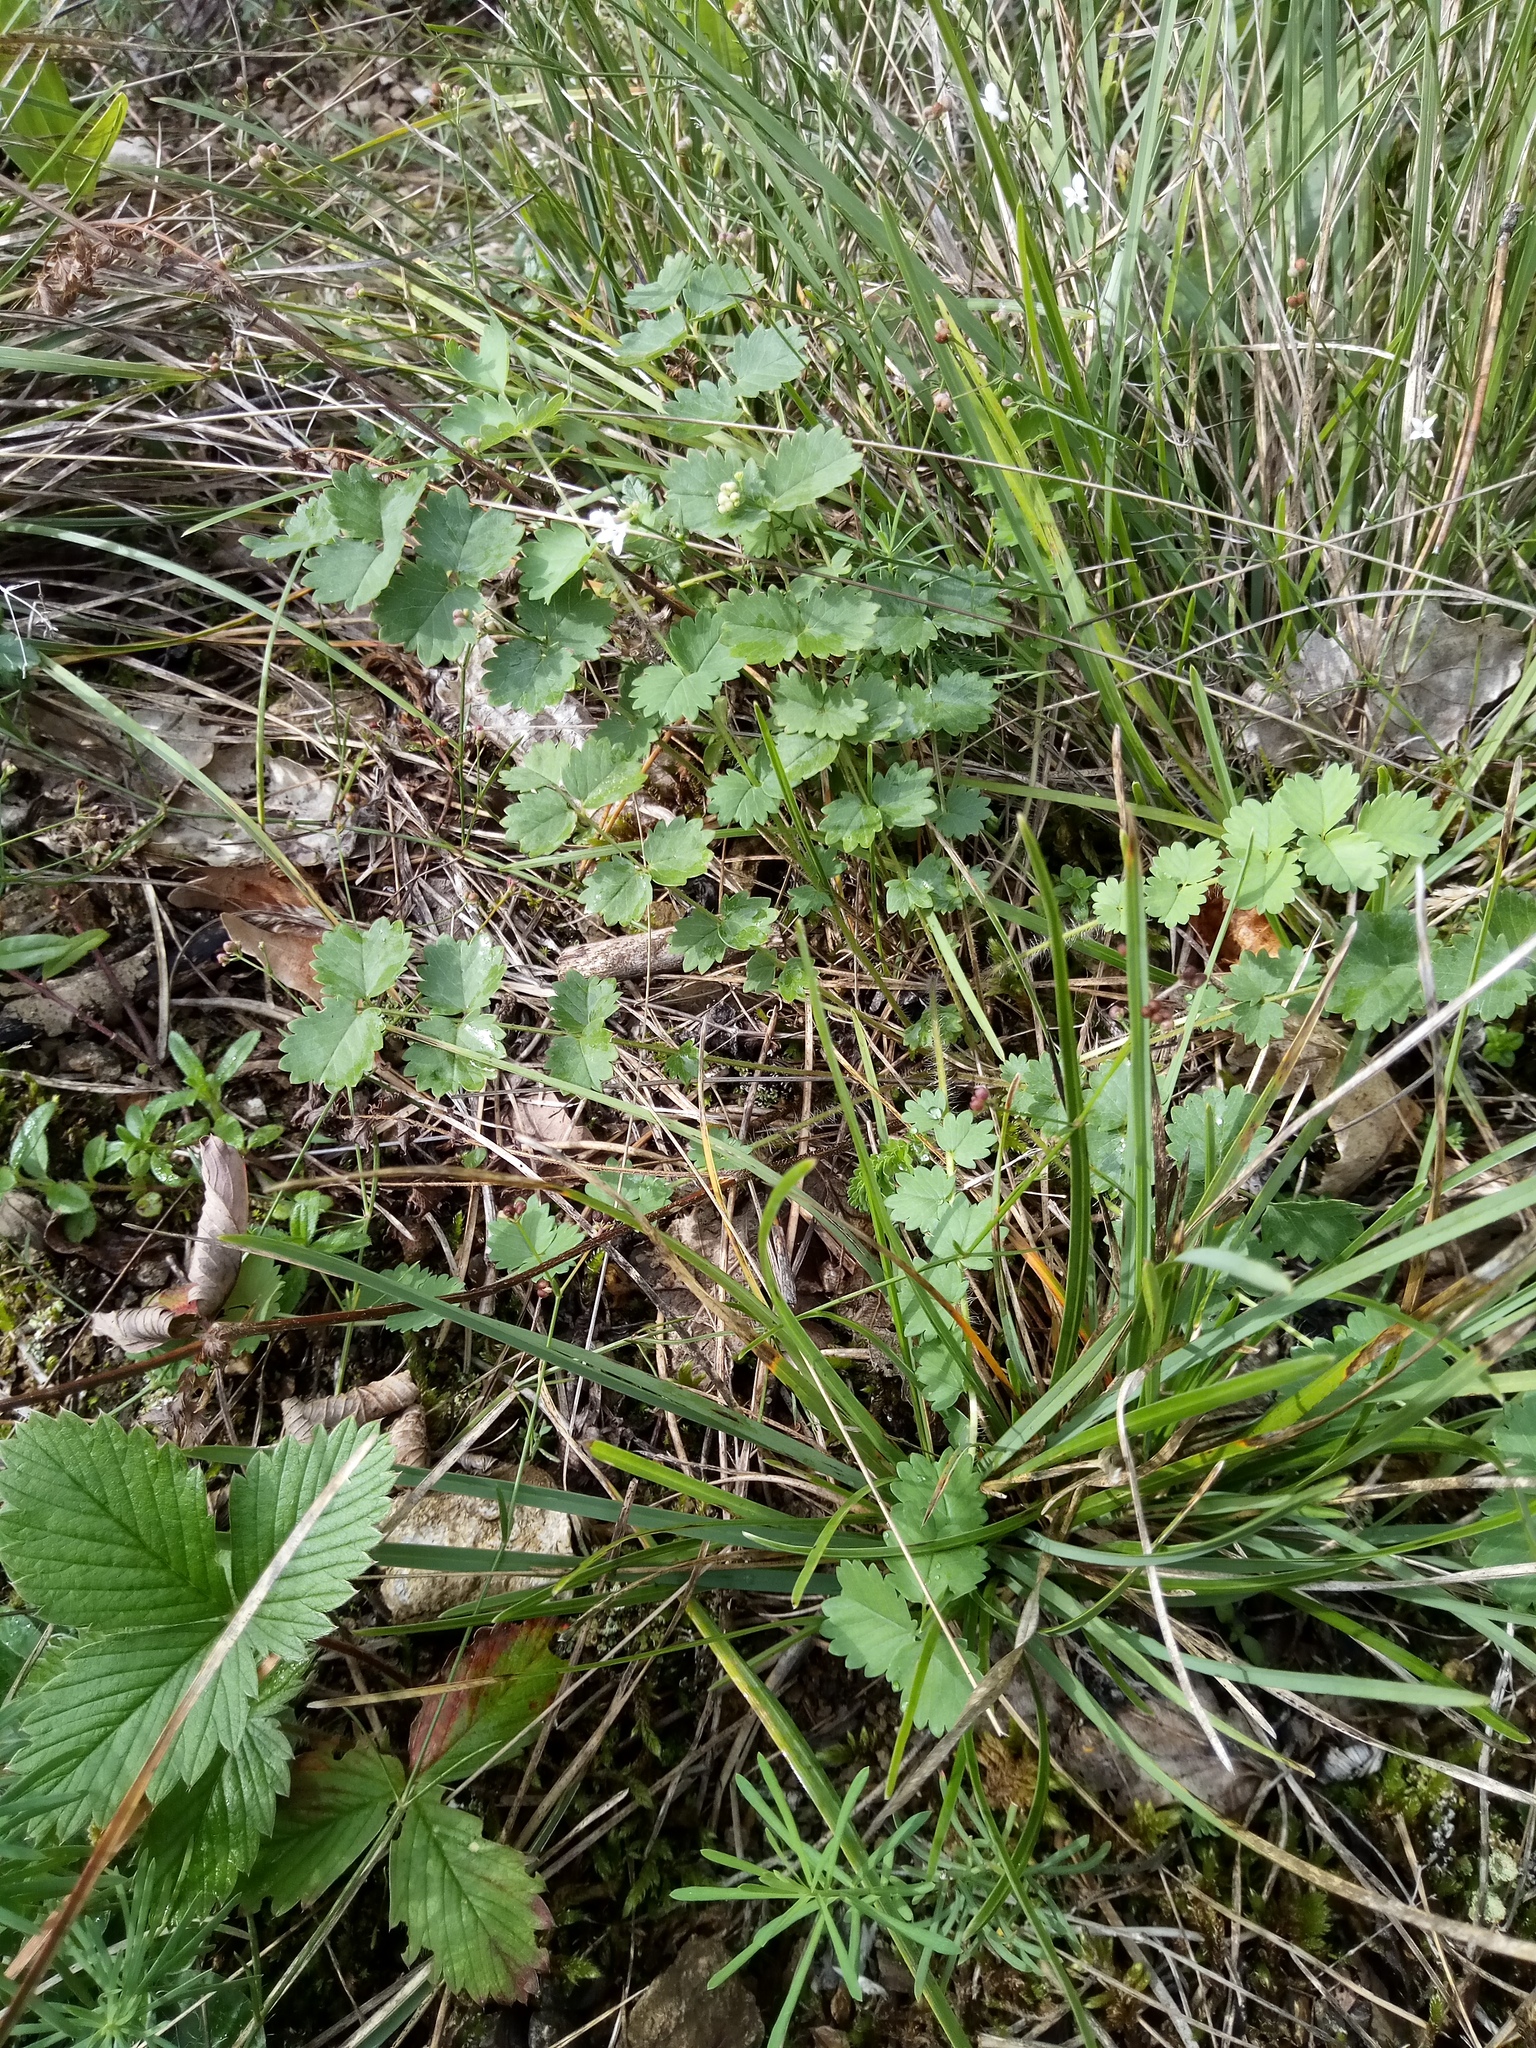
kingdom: Plantae
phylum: Tracheophyta
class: Magnoliopsida
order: Apiales
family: Apiaceae
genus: Pimpinella
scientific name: Pimpinella saxifraga
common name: Burnet-saxifrage
